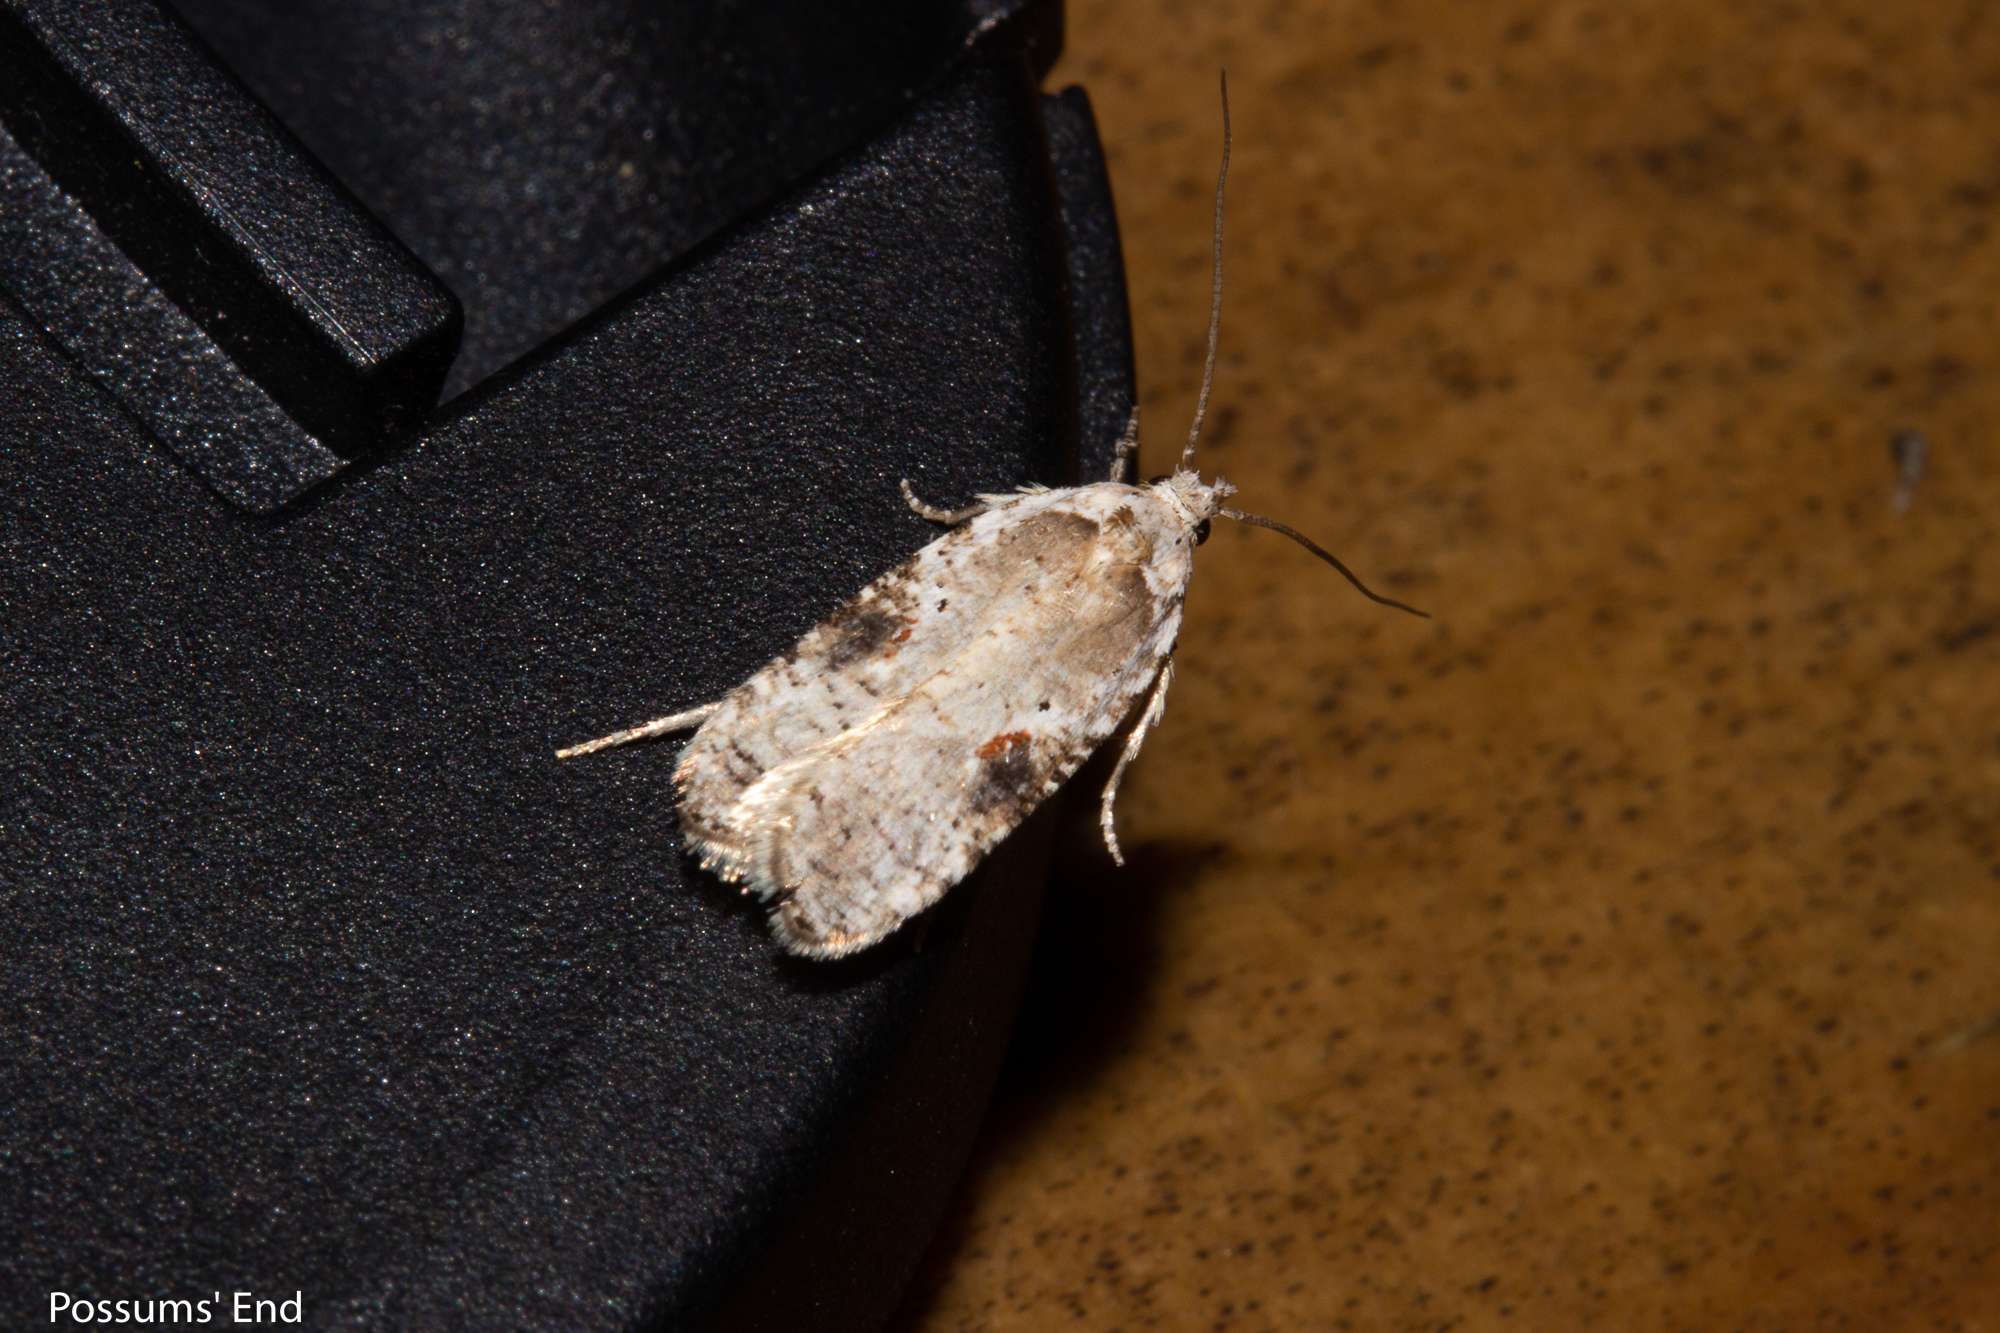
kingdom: Animalia
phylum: Arthropoda
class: Insecta
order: Lepidoptera
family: Depressariidae
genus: Agonopterix
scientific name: Agonopterix alstroemeriana
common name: Moth
